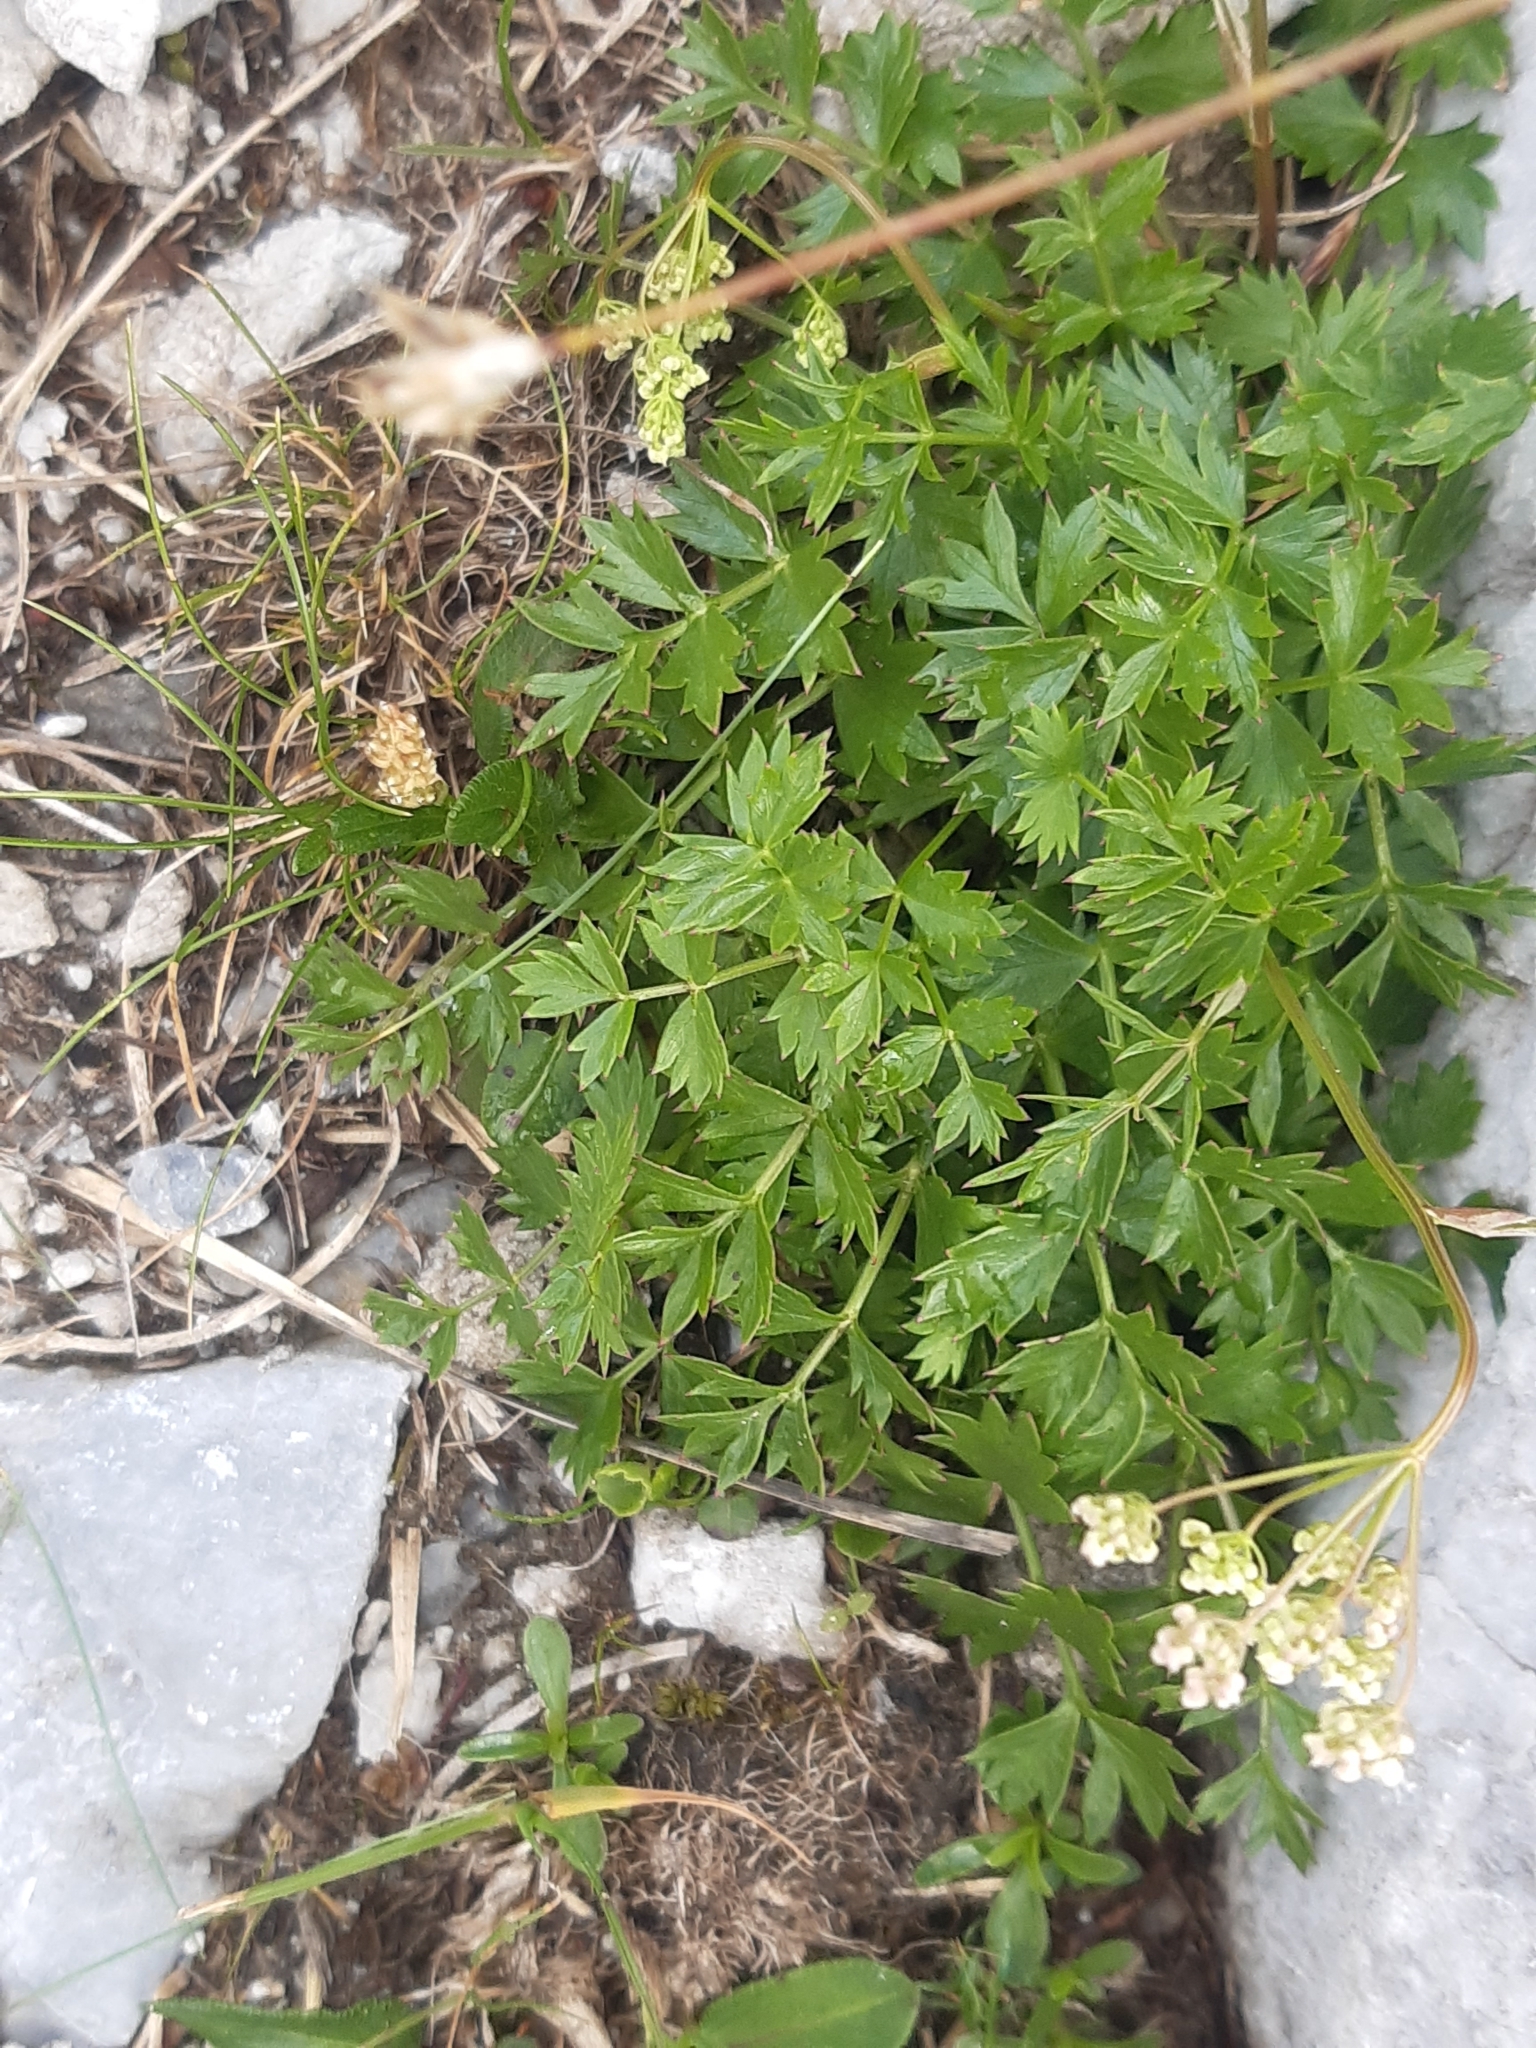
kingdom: Plantae
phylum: Tracheophyta
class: Magnoliopsida
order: Apiales
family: Apiaceae
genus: Pimpinella
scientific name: Pimpinella alpina
